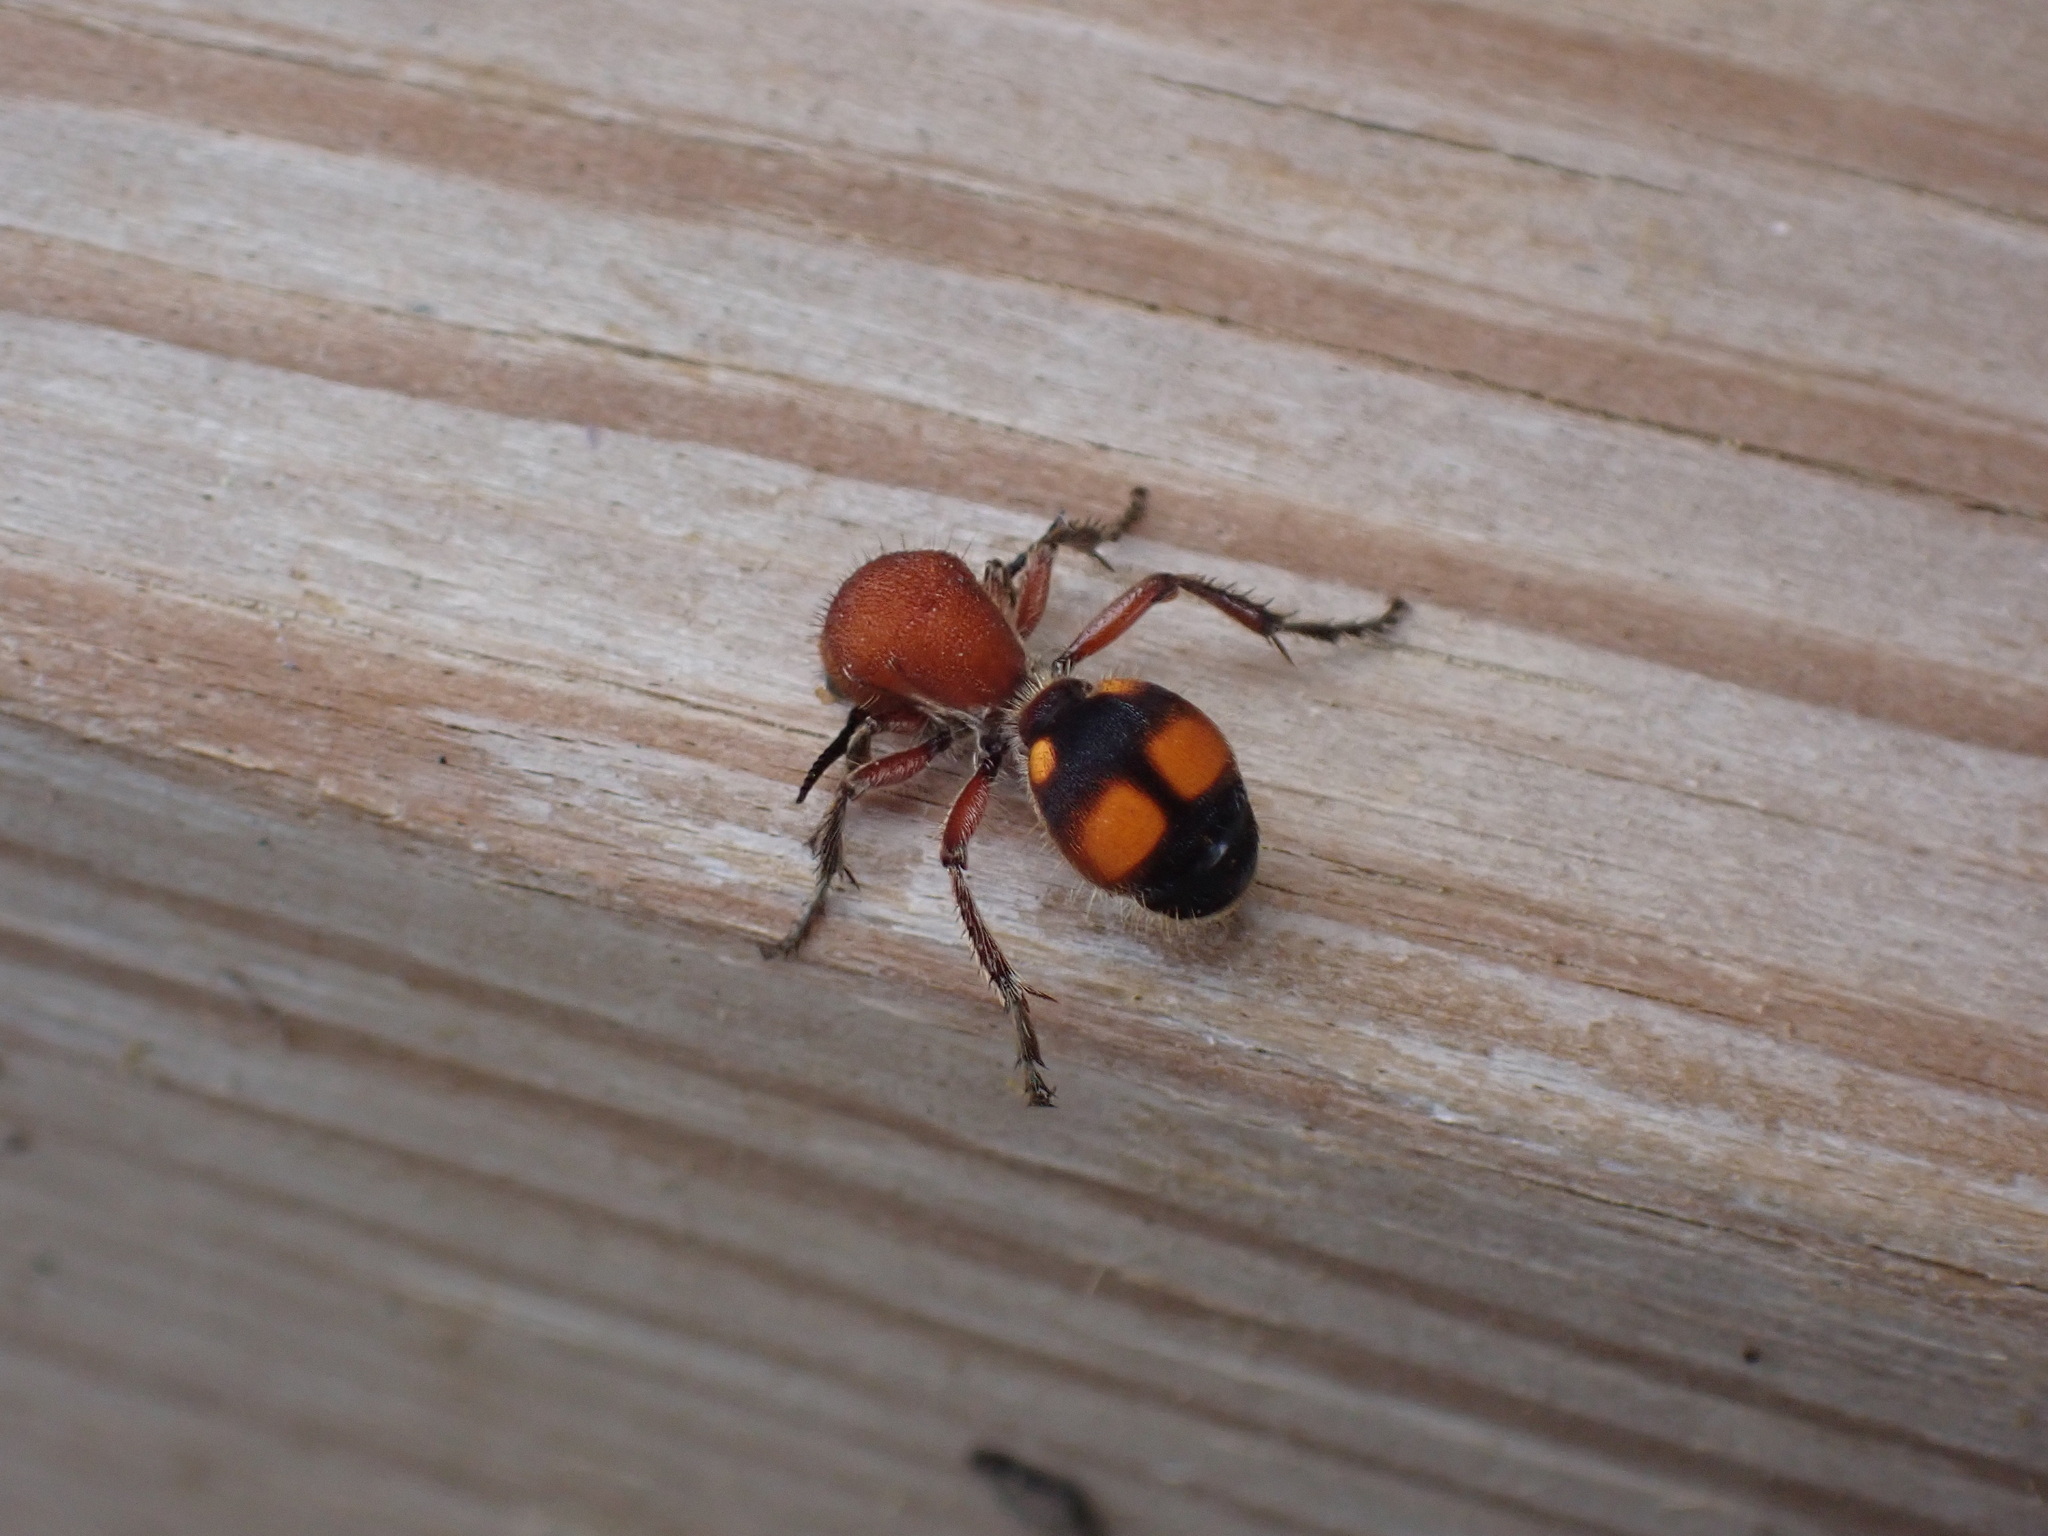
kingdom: Animalia
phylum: Arthropoda
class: Insecta
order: Hymenoptera
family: Mutillidae
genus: Dasymutilla
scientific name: Dasymutilla
